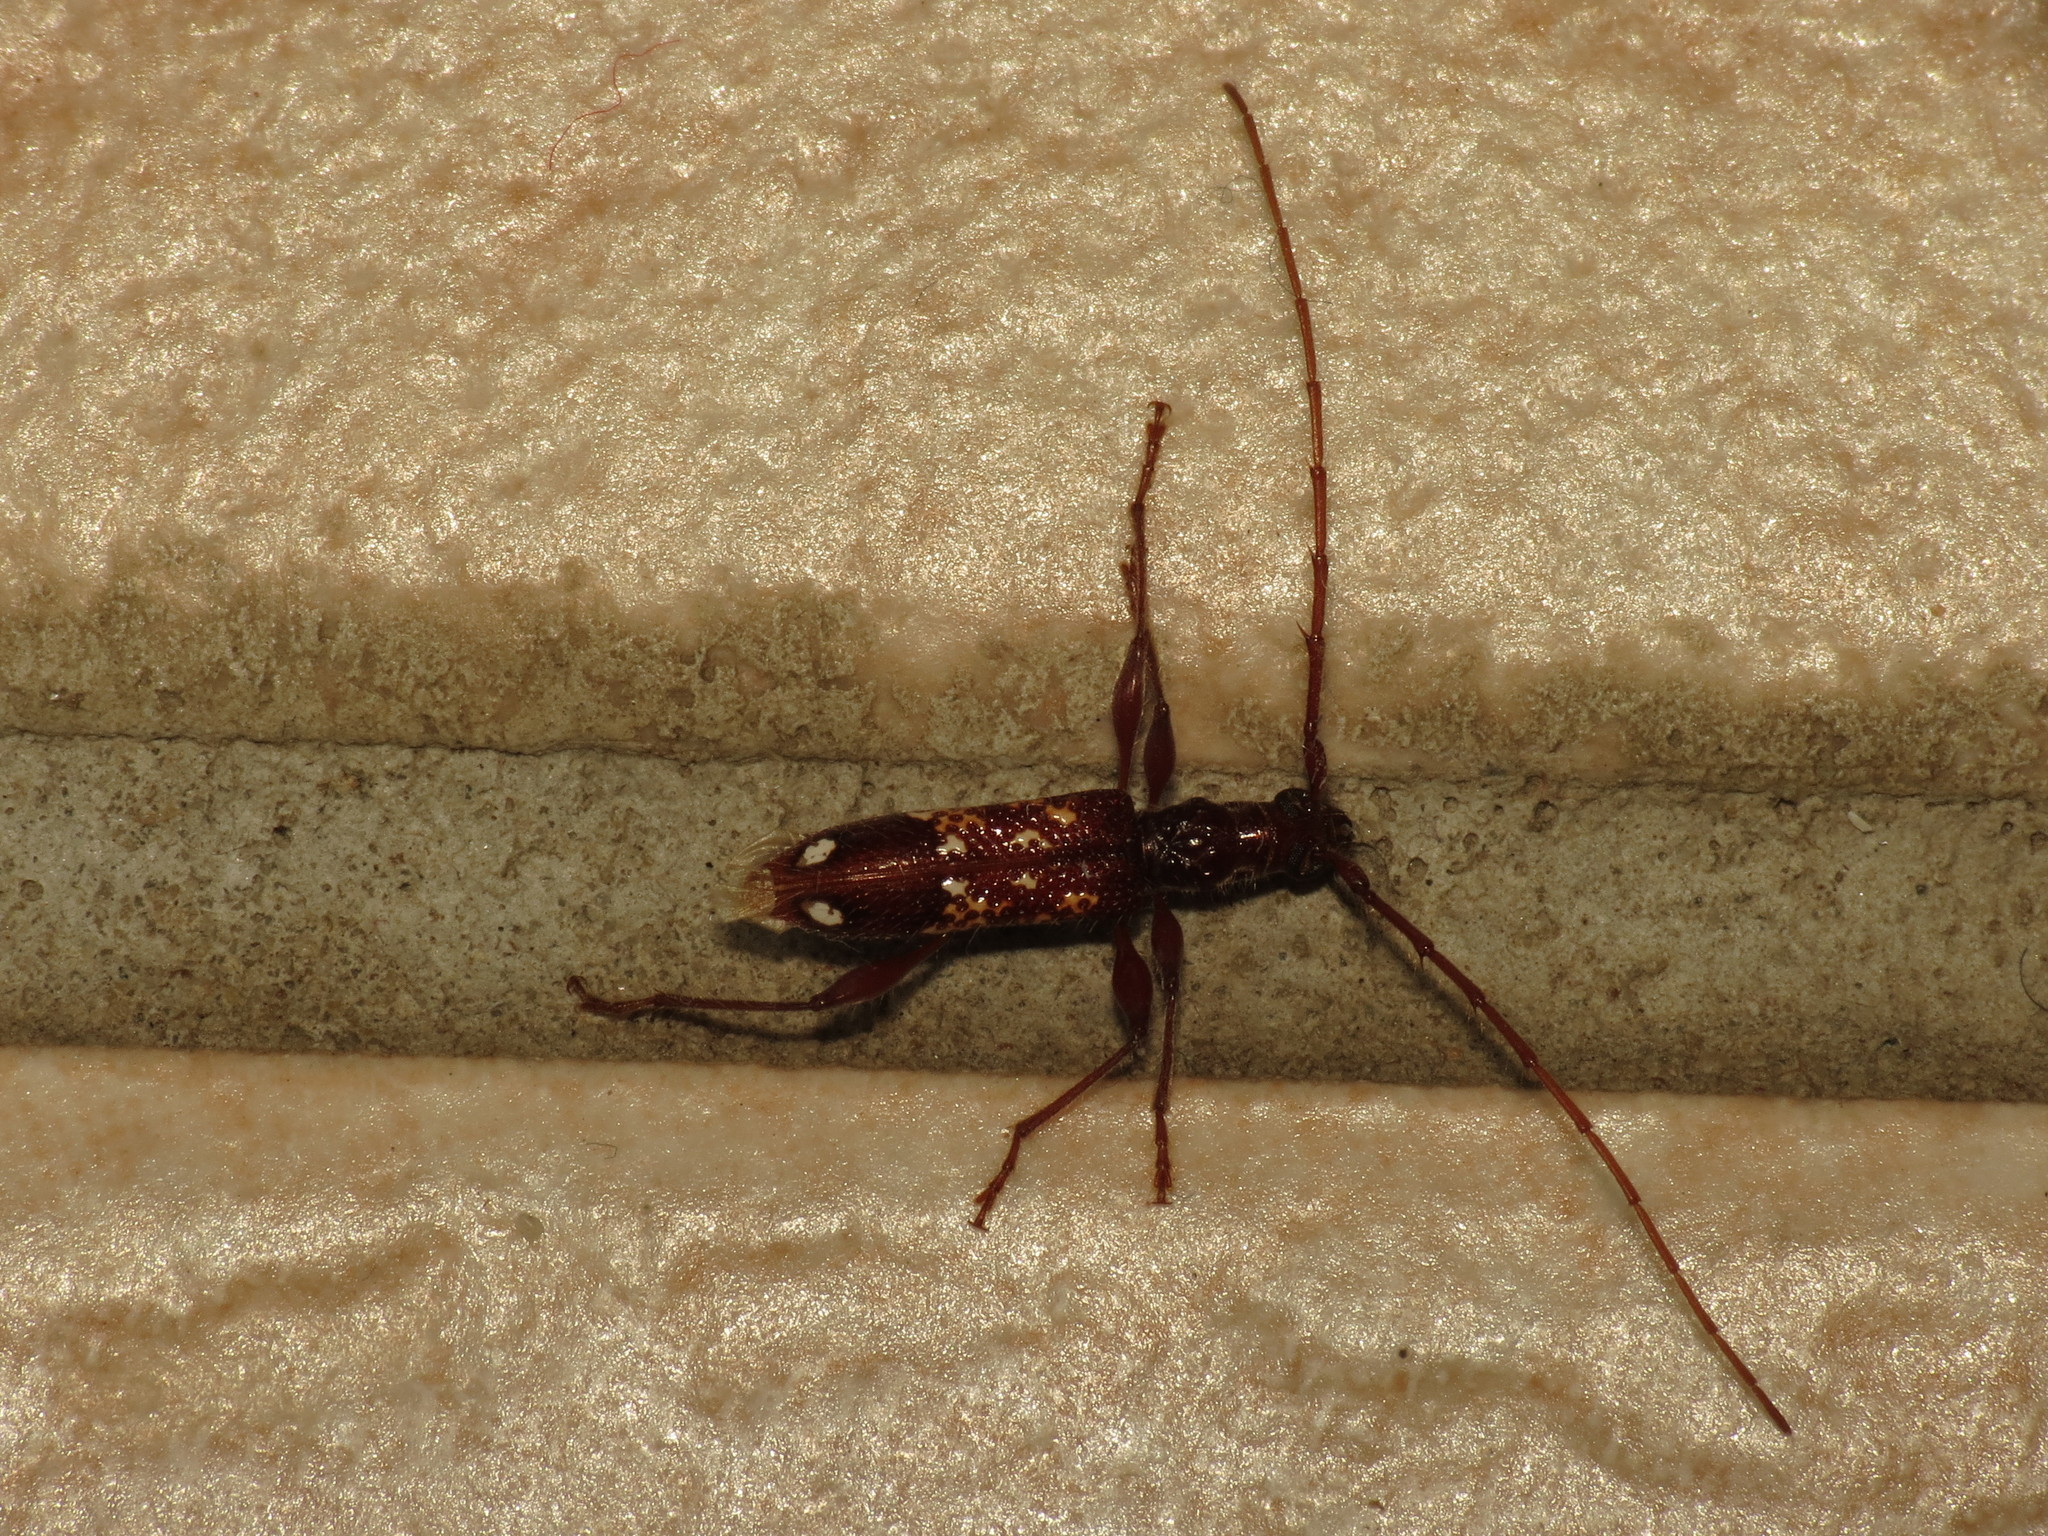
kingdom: Animalia
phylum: Arthropoda
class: Insecta
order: Coleoptera
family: Cerambycidae
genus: Coptocercus
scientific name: Coptocercus biguttatus
